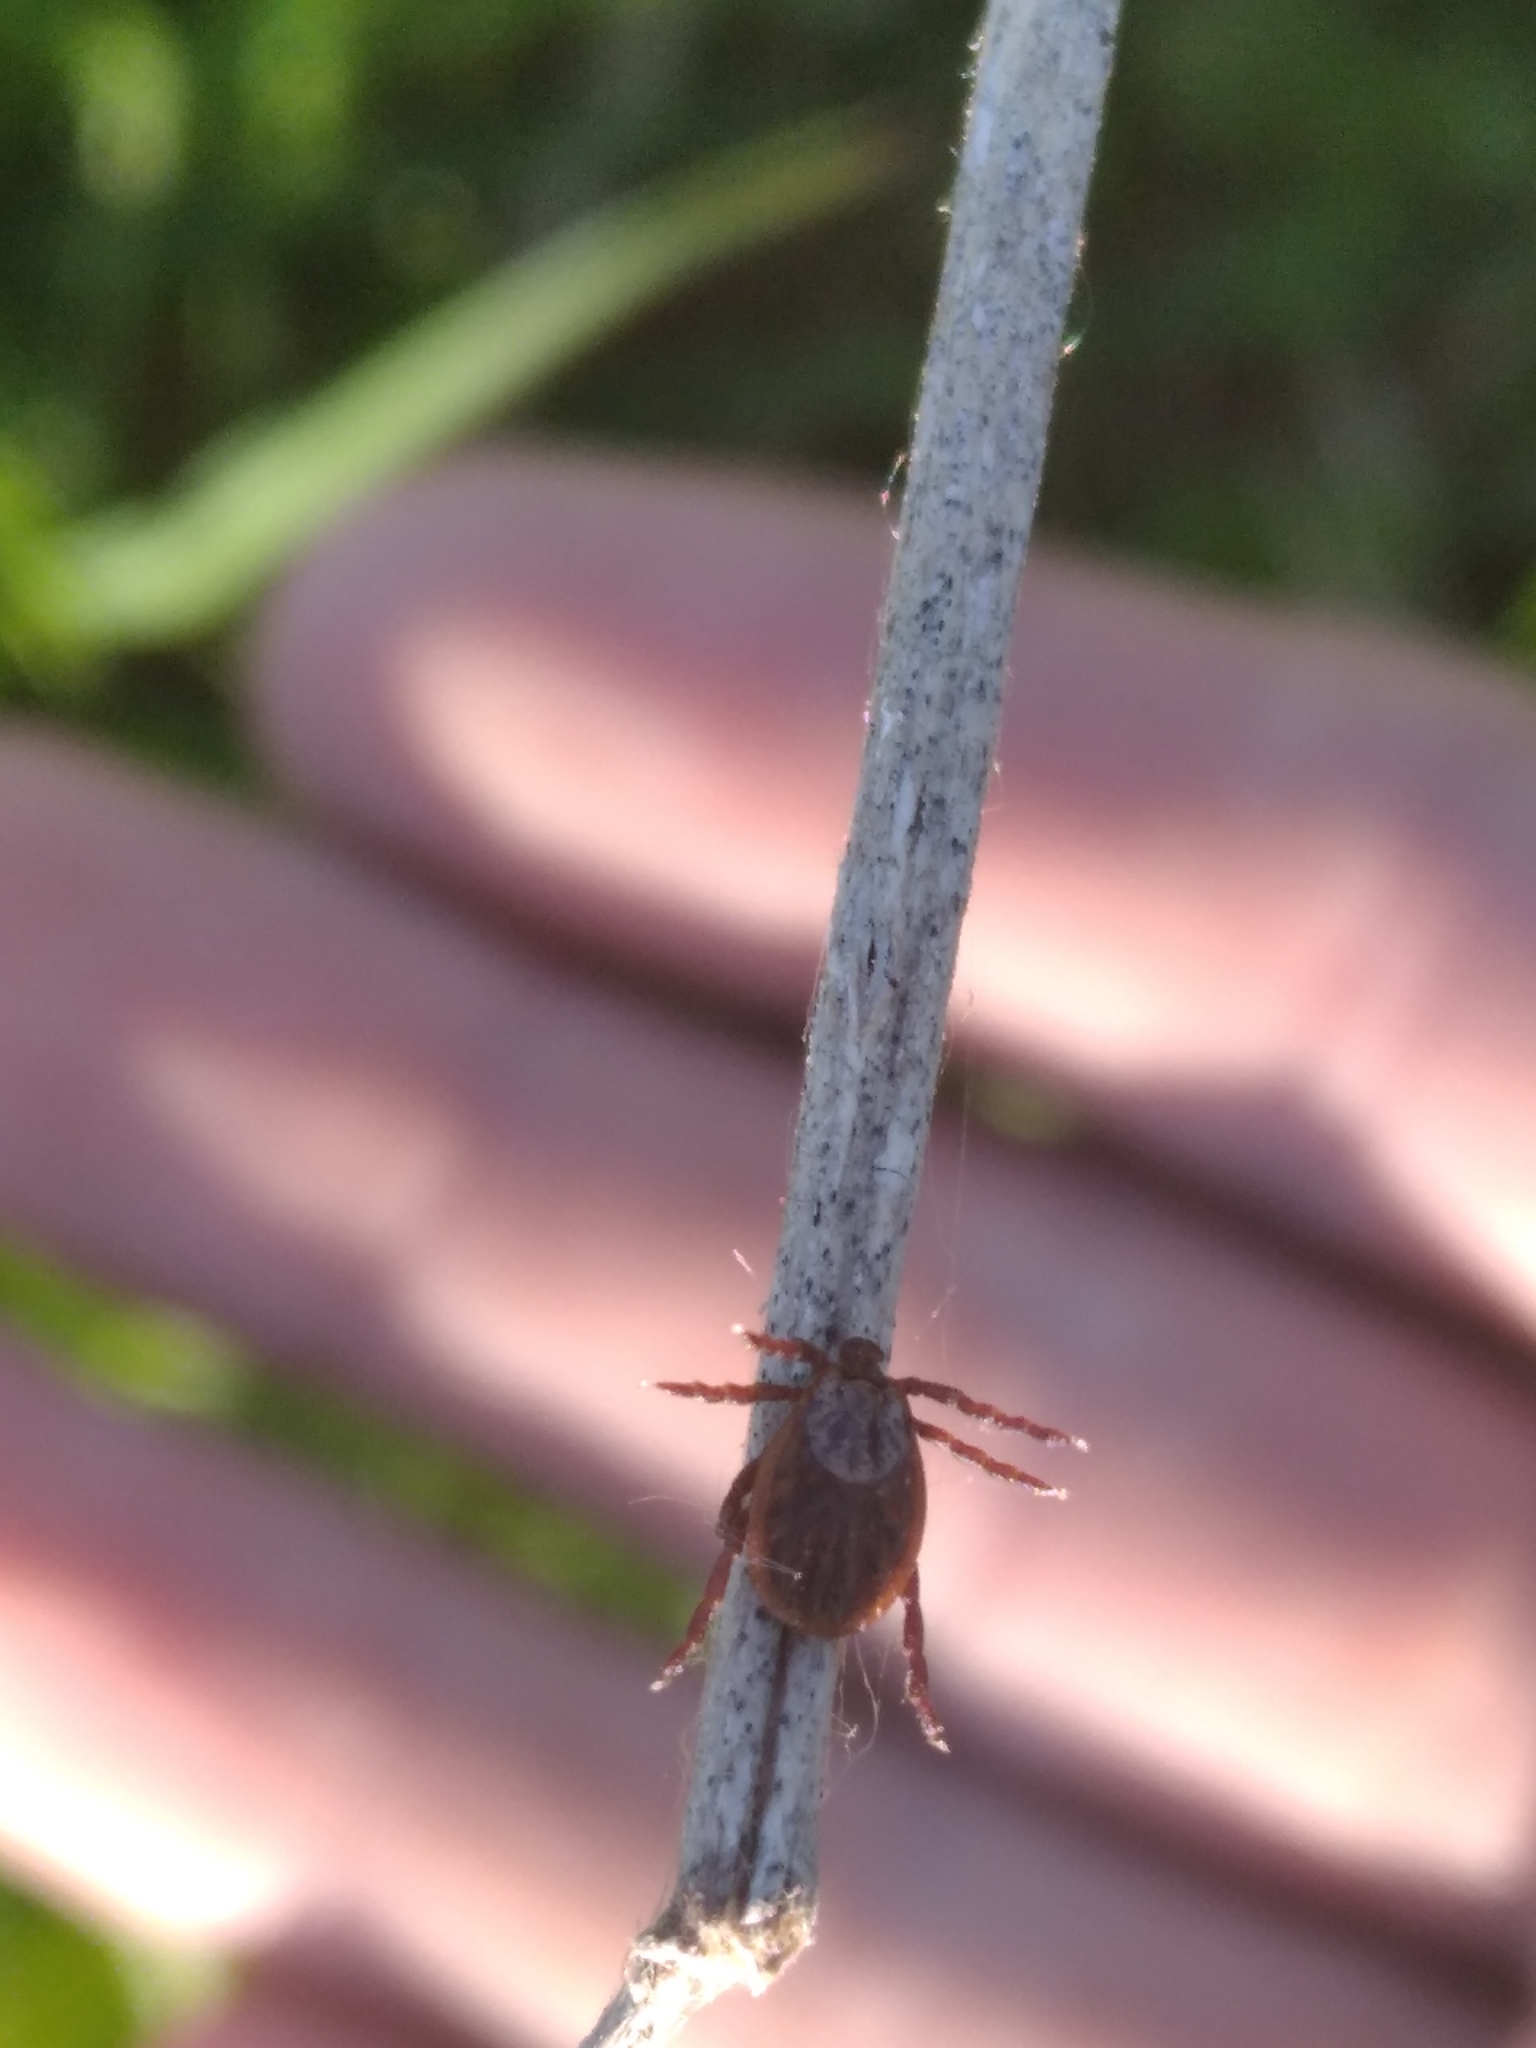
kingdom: Animalia
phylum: Arthropoda
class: Arachnida
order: Ixodida
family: Ixodidae
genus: Dermacentor
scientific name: Dermacentor reticulatus
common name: Ornate cow tick
